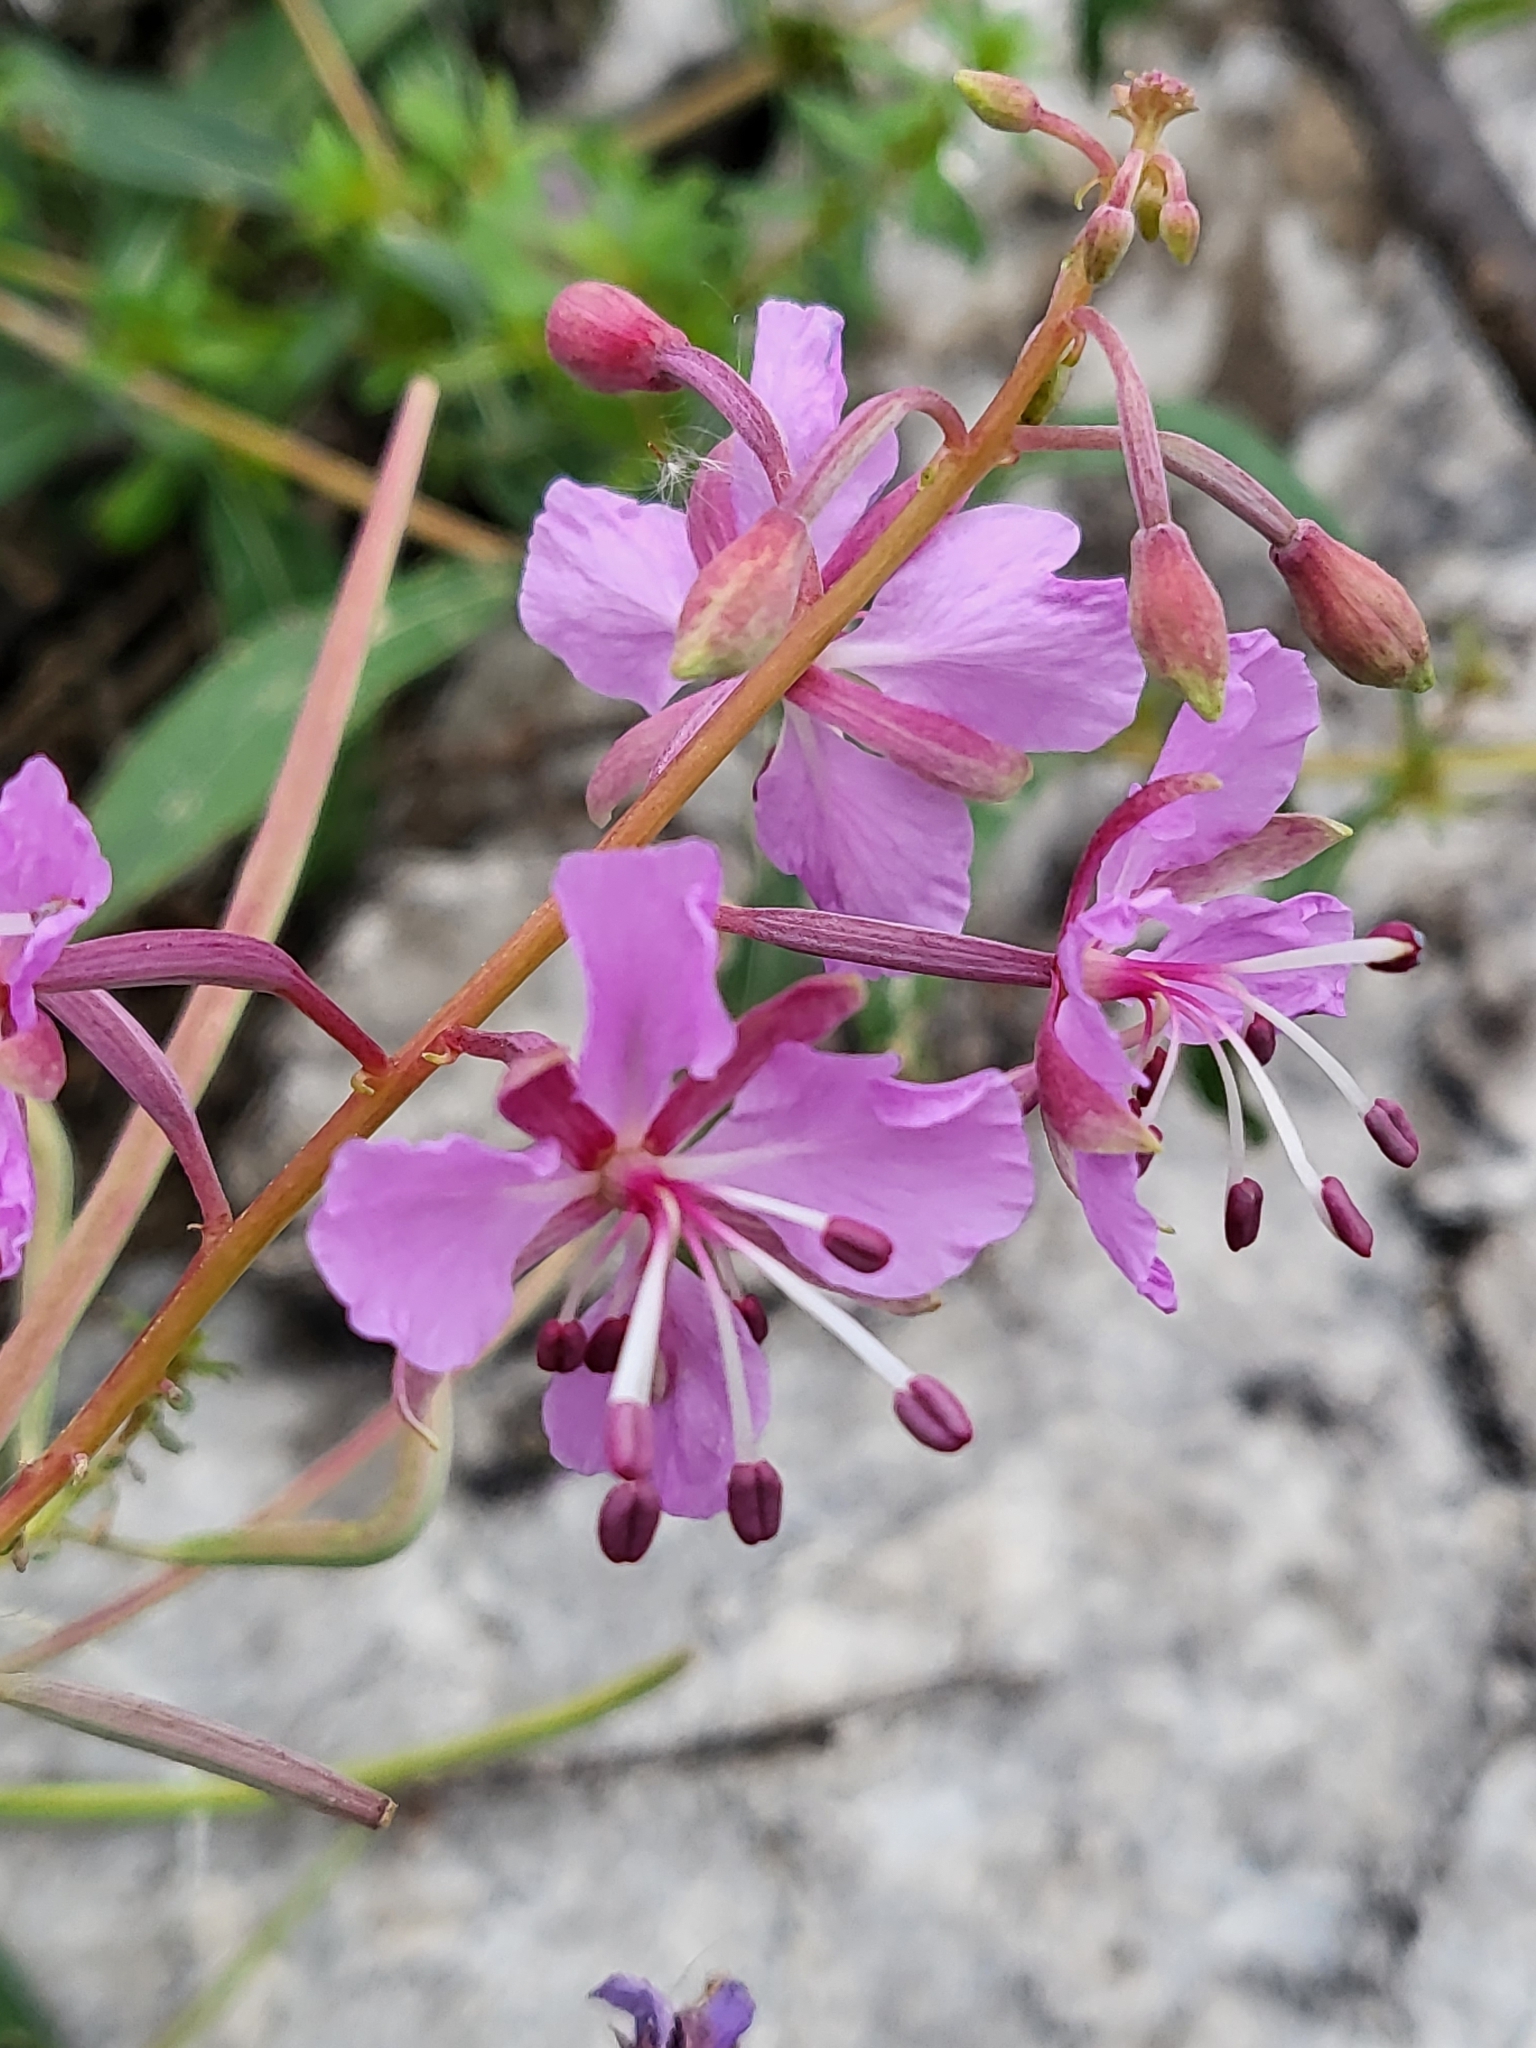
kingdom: Plantae
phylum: Tracheophyta
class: Magnoliopsida
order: Myrtales
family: Onagraceae
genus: Chamaenerion
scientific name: Chamaenerion angustifolium
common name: Fireweed
